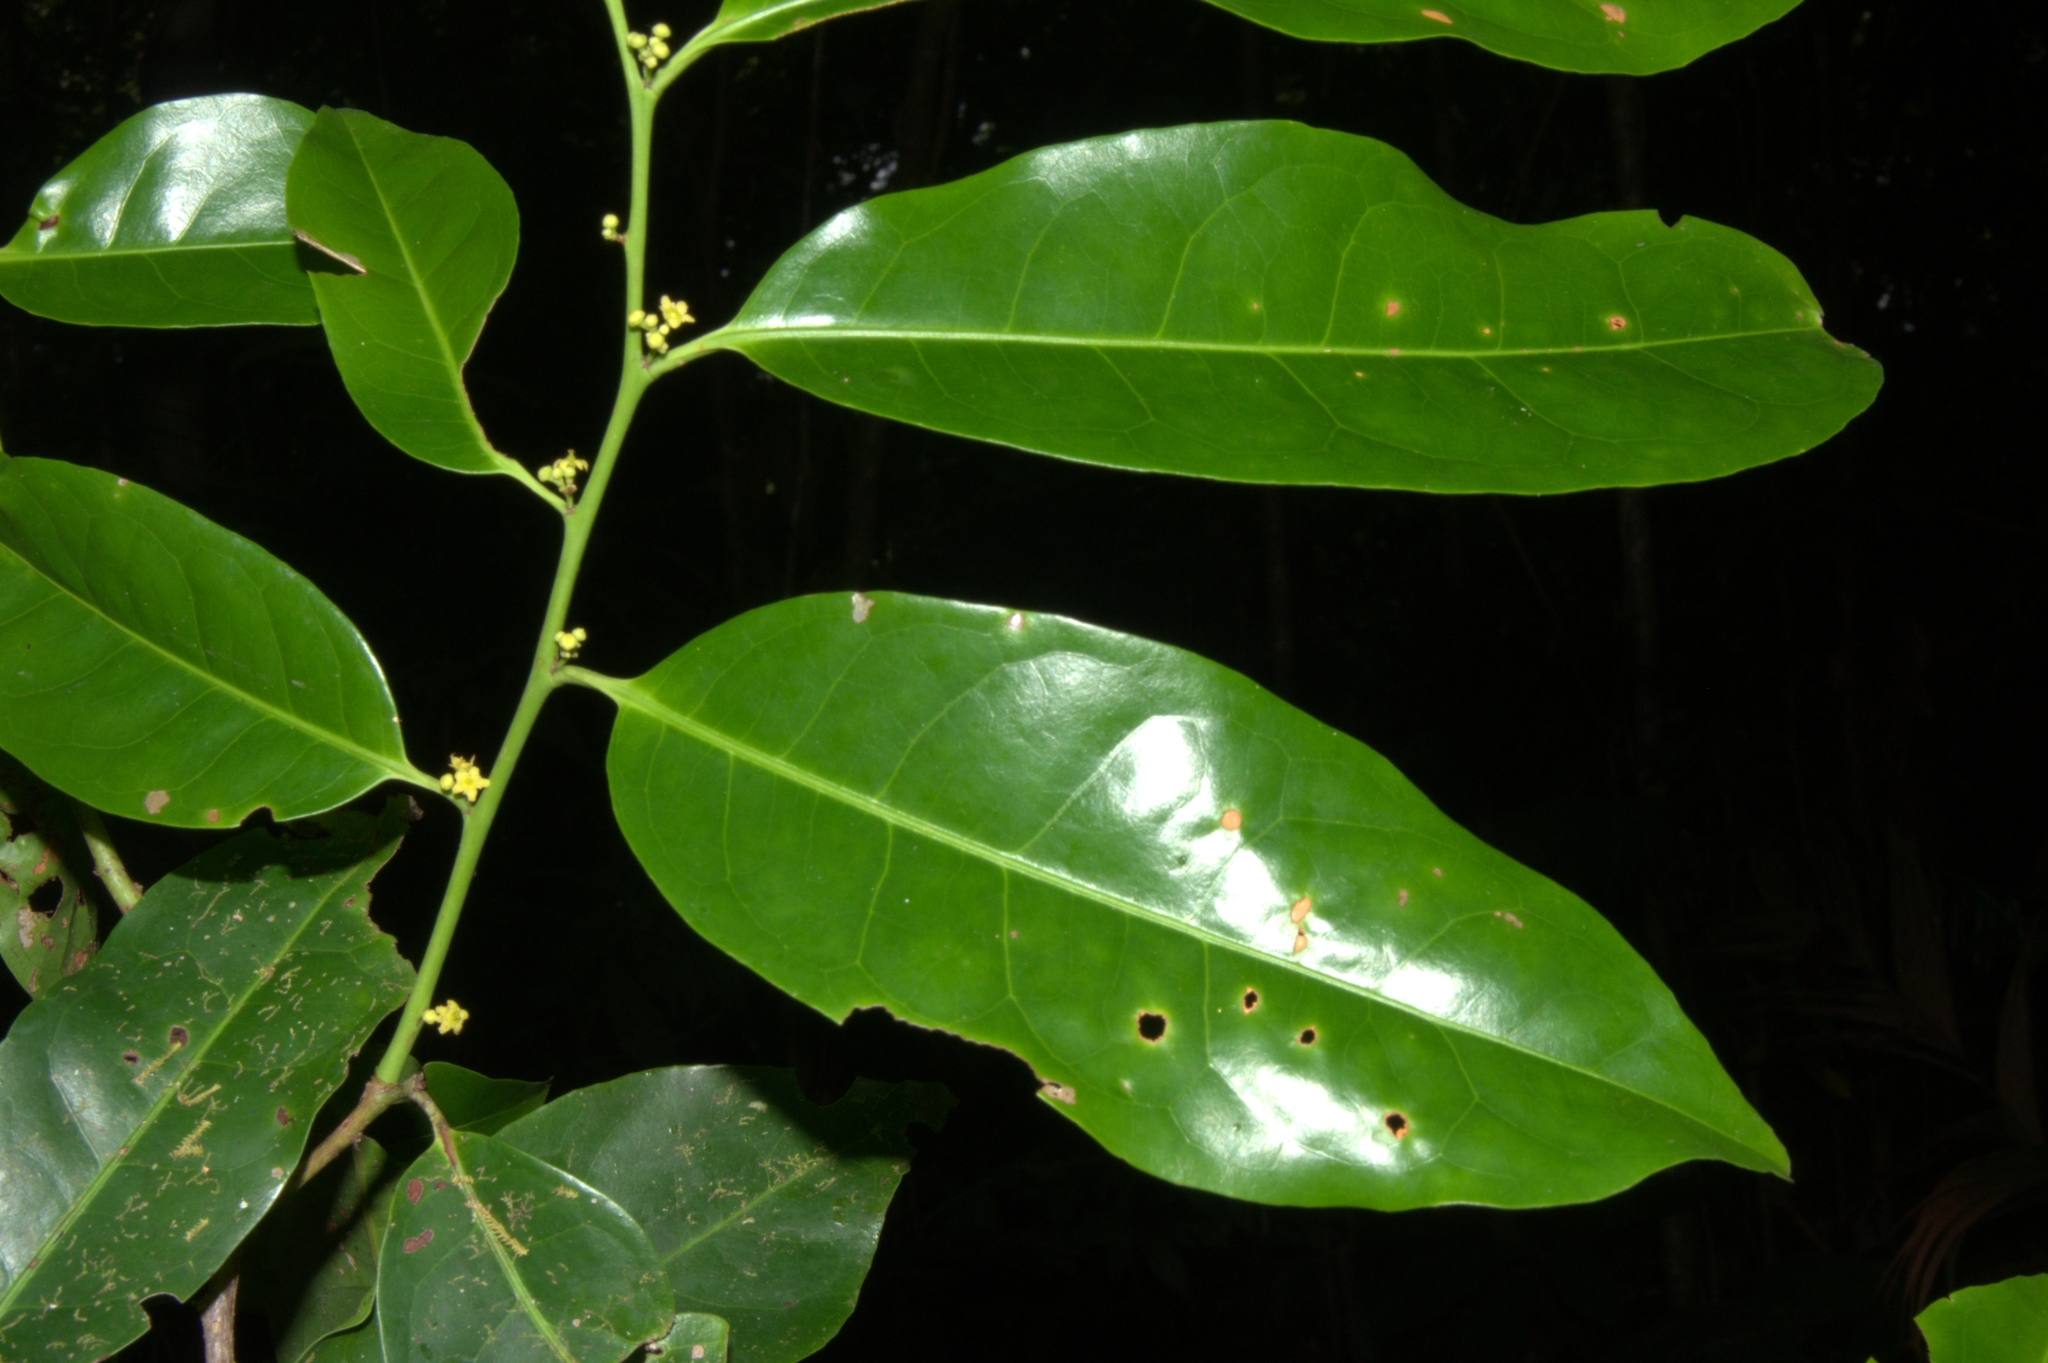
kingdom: Plantae
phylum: Tracheophyta
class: Magnoliopsida
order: Celastrales
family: Celastraceae
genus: Monteverdia
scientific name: Monteverdia recondita
